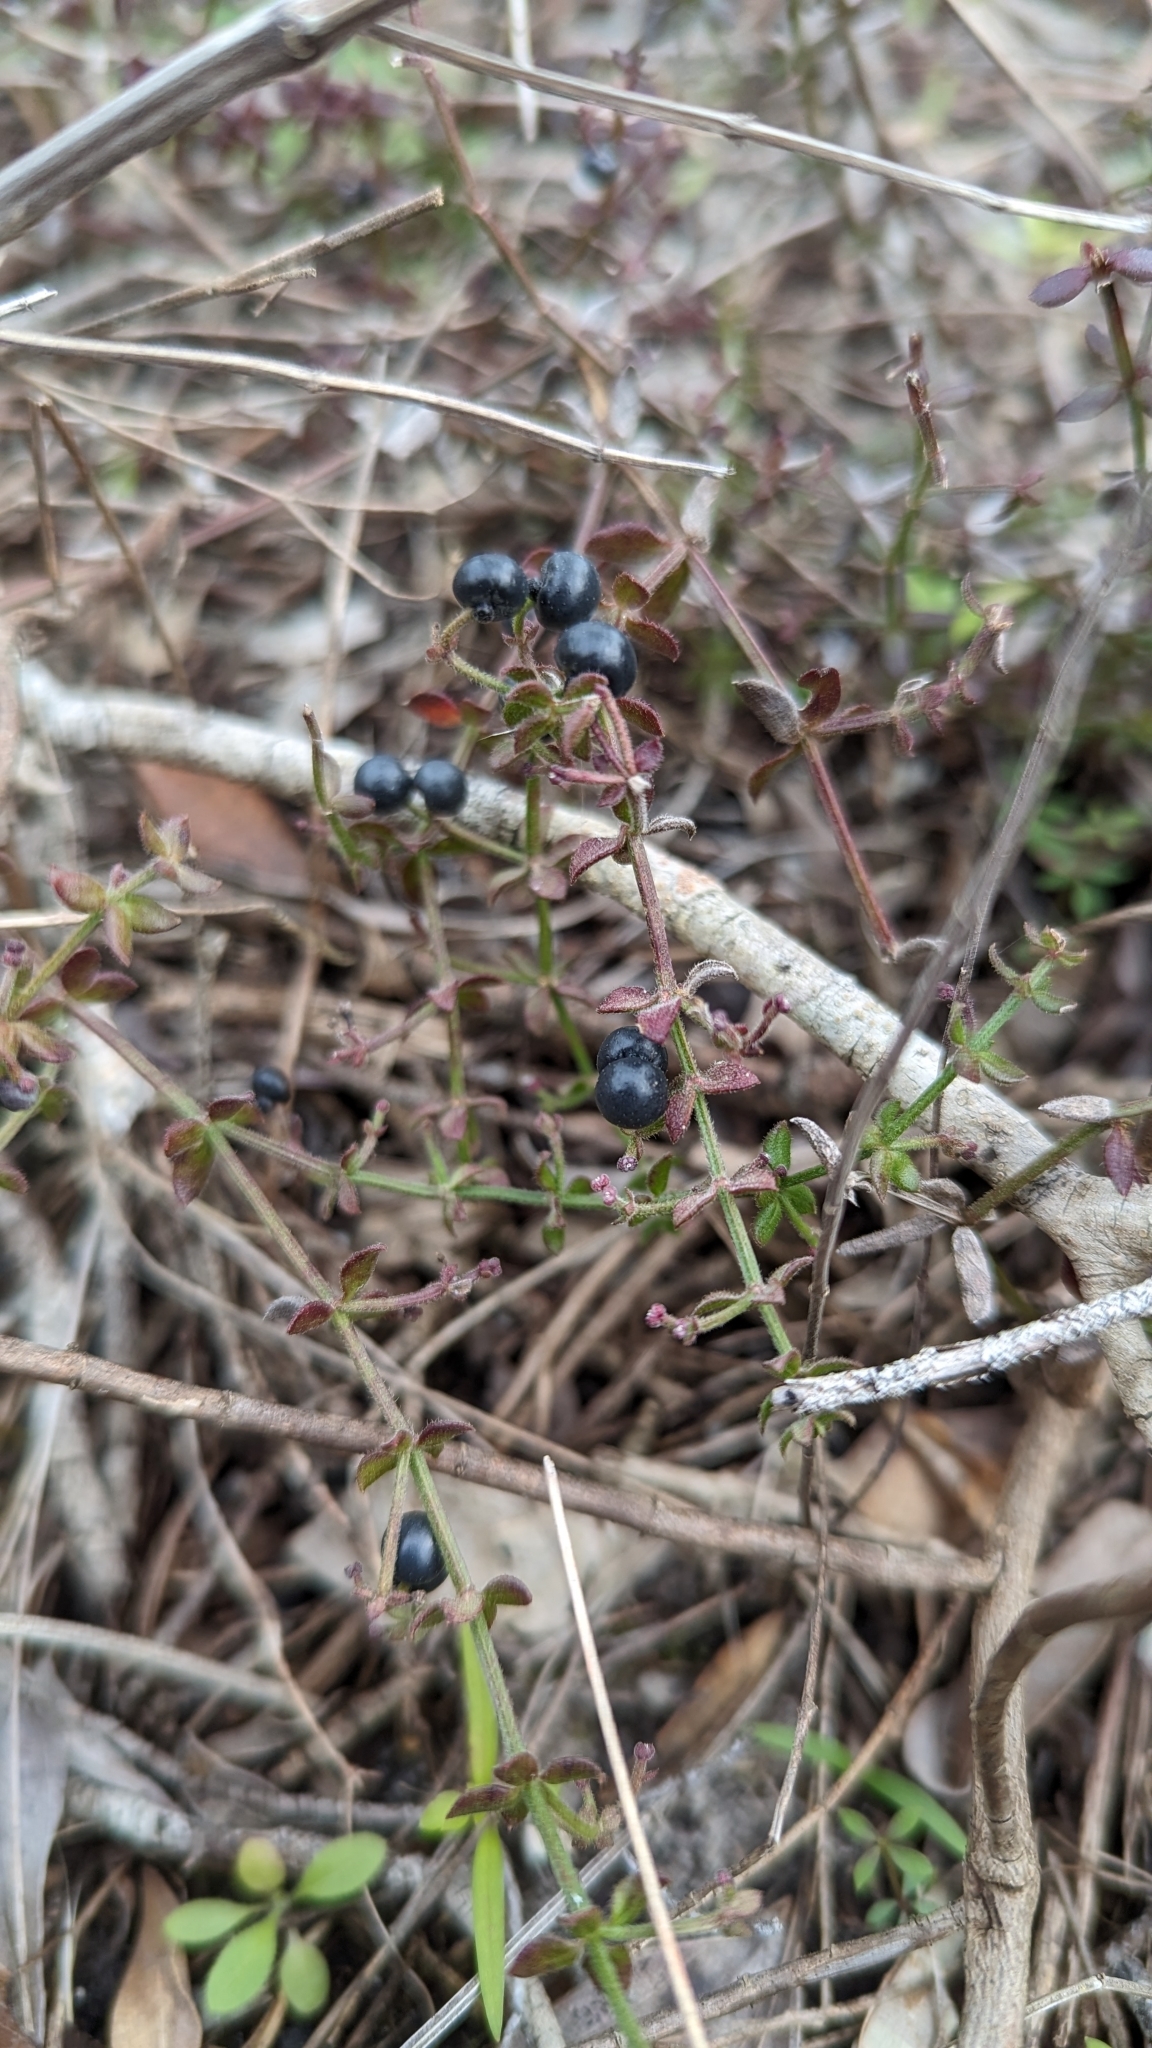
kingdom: Plantae
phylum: Tracheophyta
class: Magnoliopsida
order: Gentianales
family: Rubiaceae
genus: Galium
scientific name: Galium bermudense
